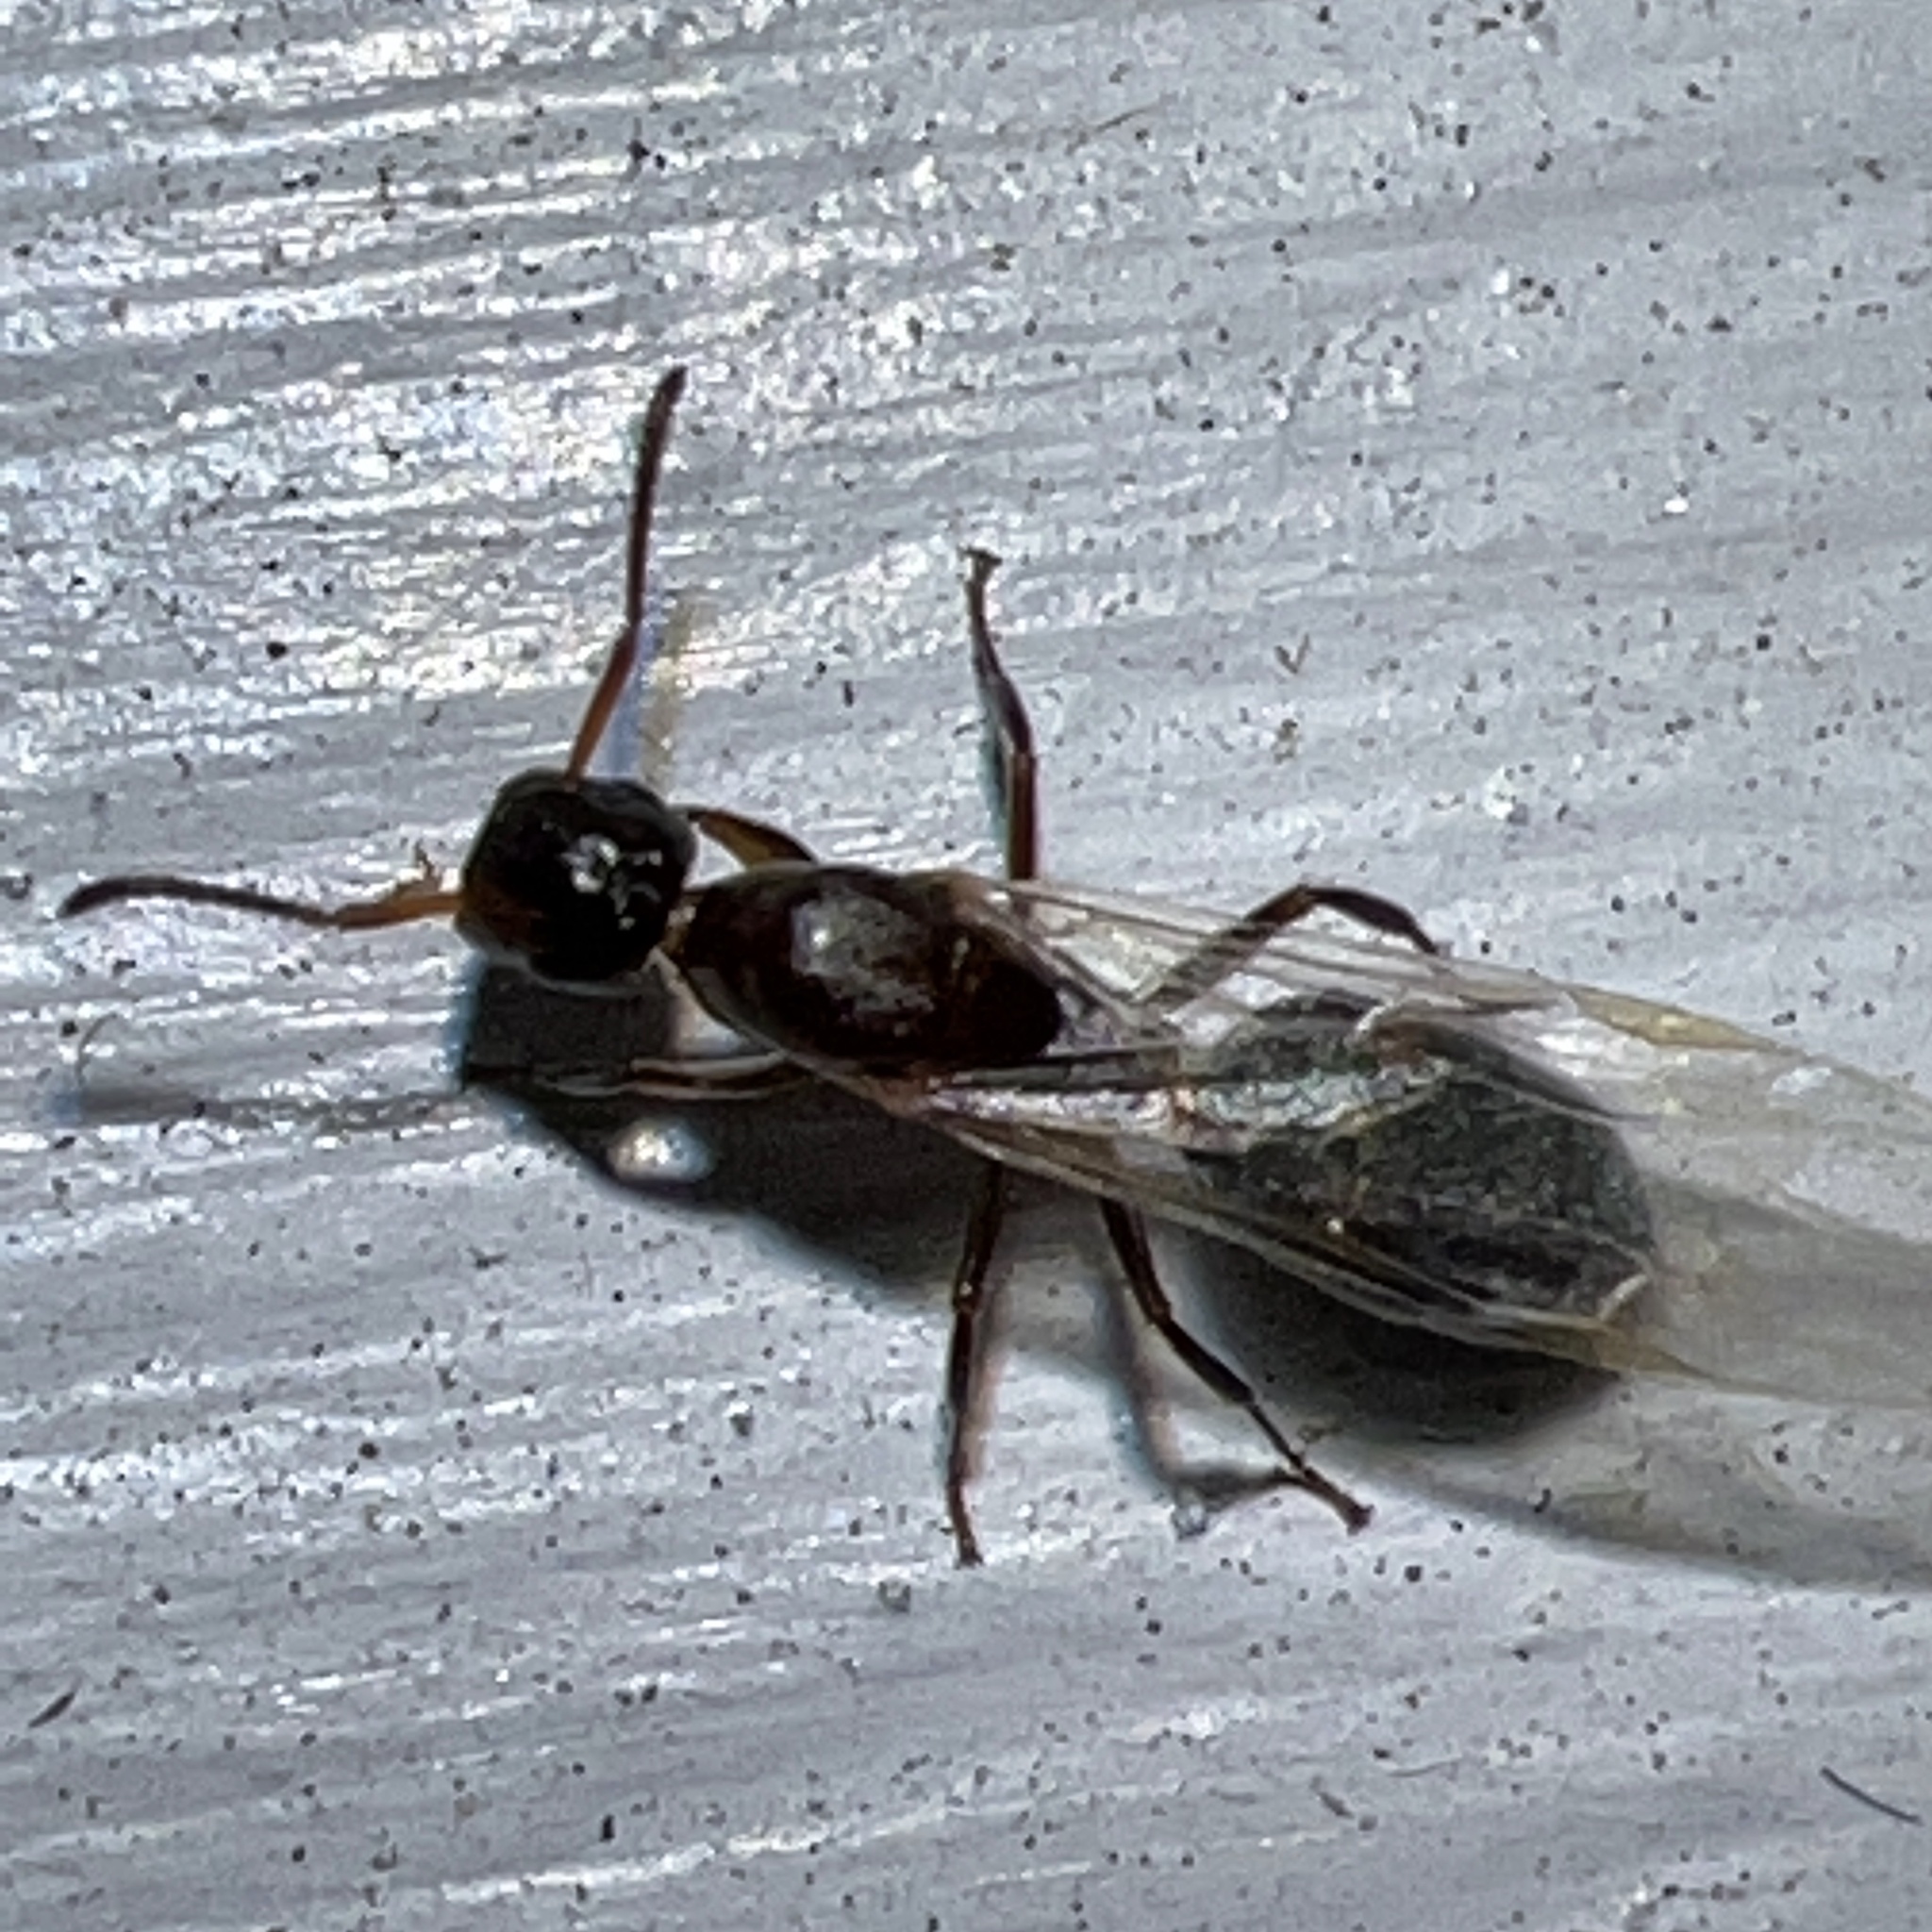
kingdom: Animalia
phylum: Arthropoda
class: Insecta
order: Hymenoptera
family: Formicidae
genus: Colobopsis
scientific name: Colobopsis
